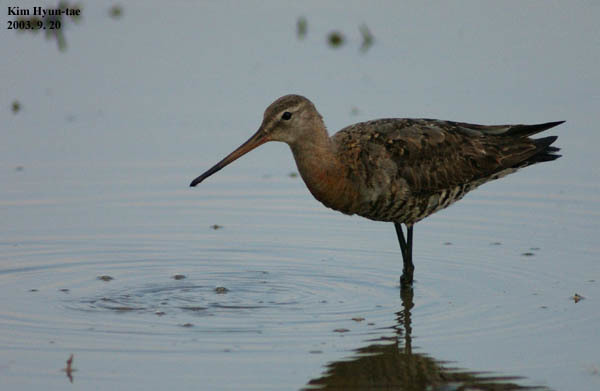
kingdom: Animalia
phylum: Chordata
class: Aves
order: Charadriiformes
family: Scolopacidae
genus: Limosa
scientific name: Limosa limosa
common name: Black-tailed godwit
